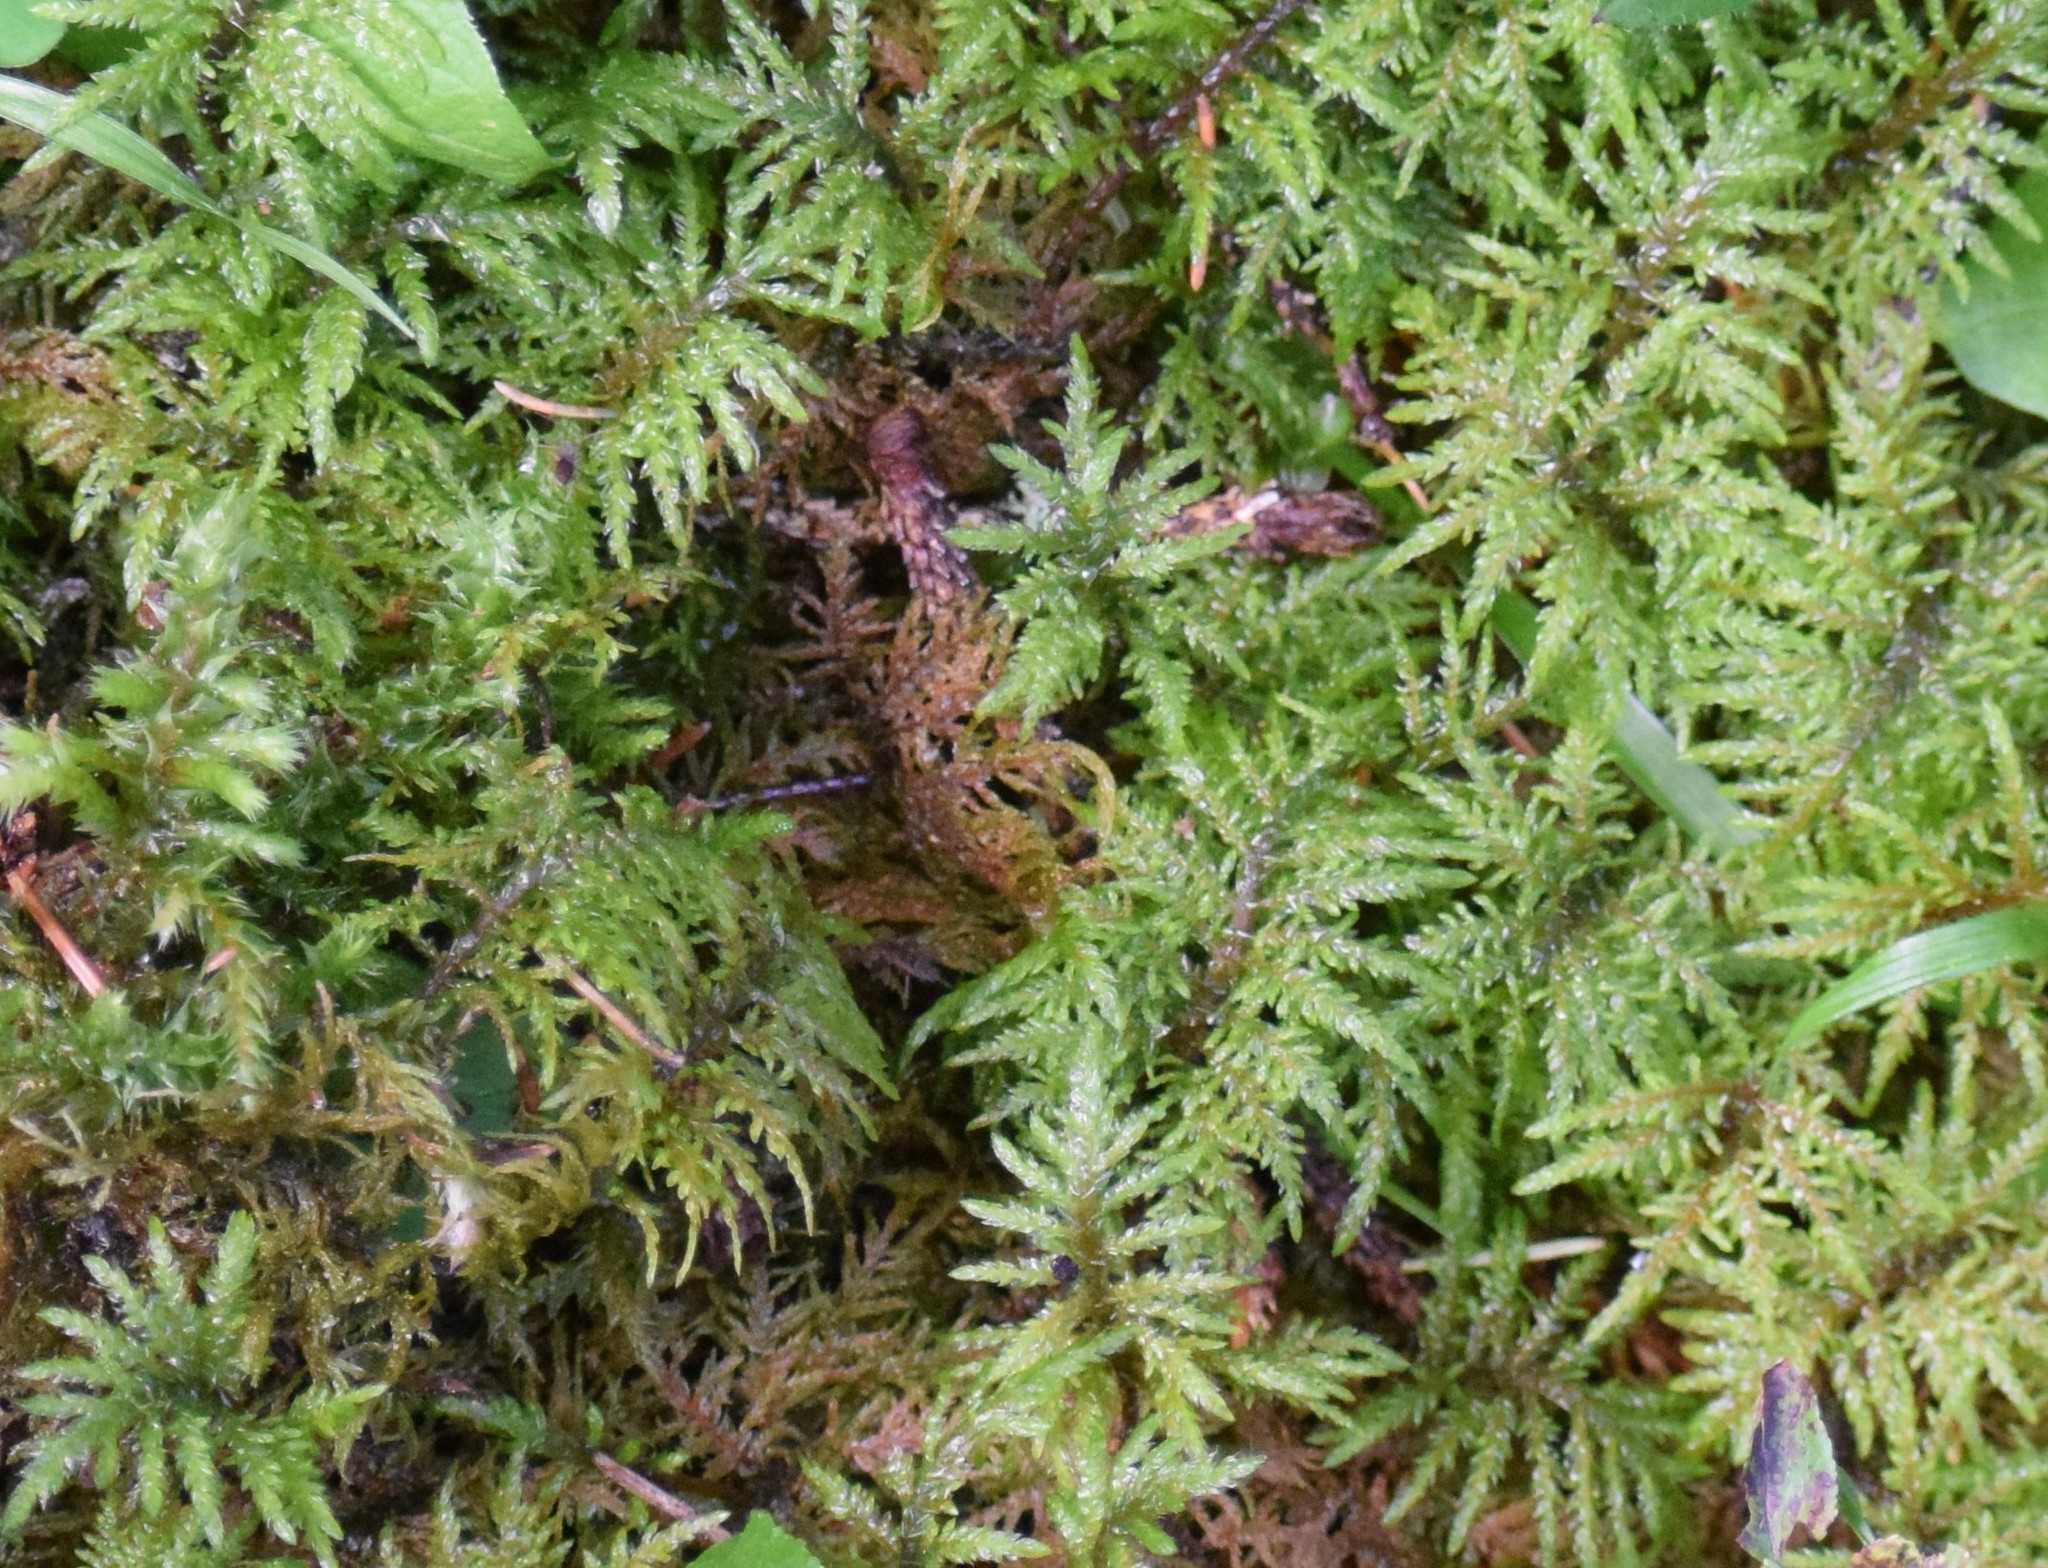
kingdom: Plantae
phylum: Bryophyta
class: Bryopsida
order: Hypnales
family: Hylocomiaceae
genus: Hylocomium
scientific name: Hylocomium splendens
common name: Stairstep moss
